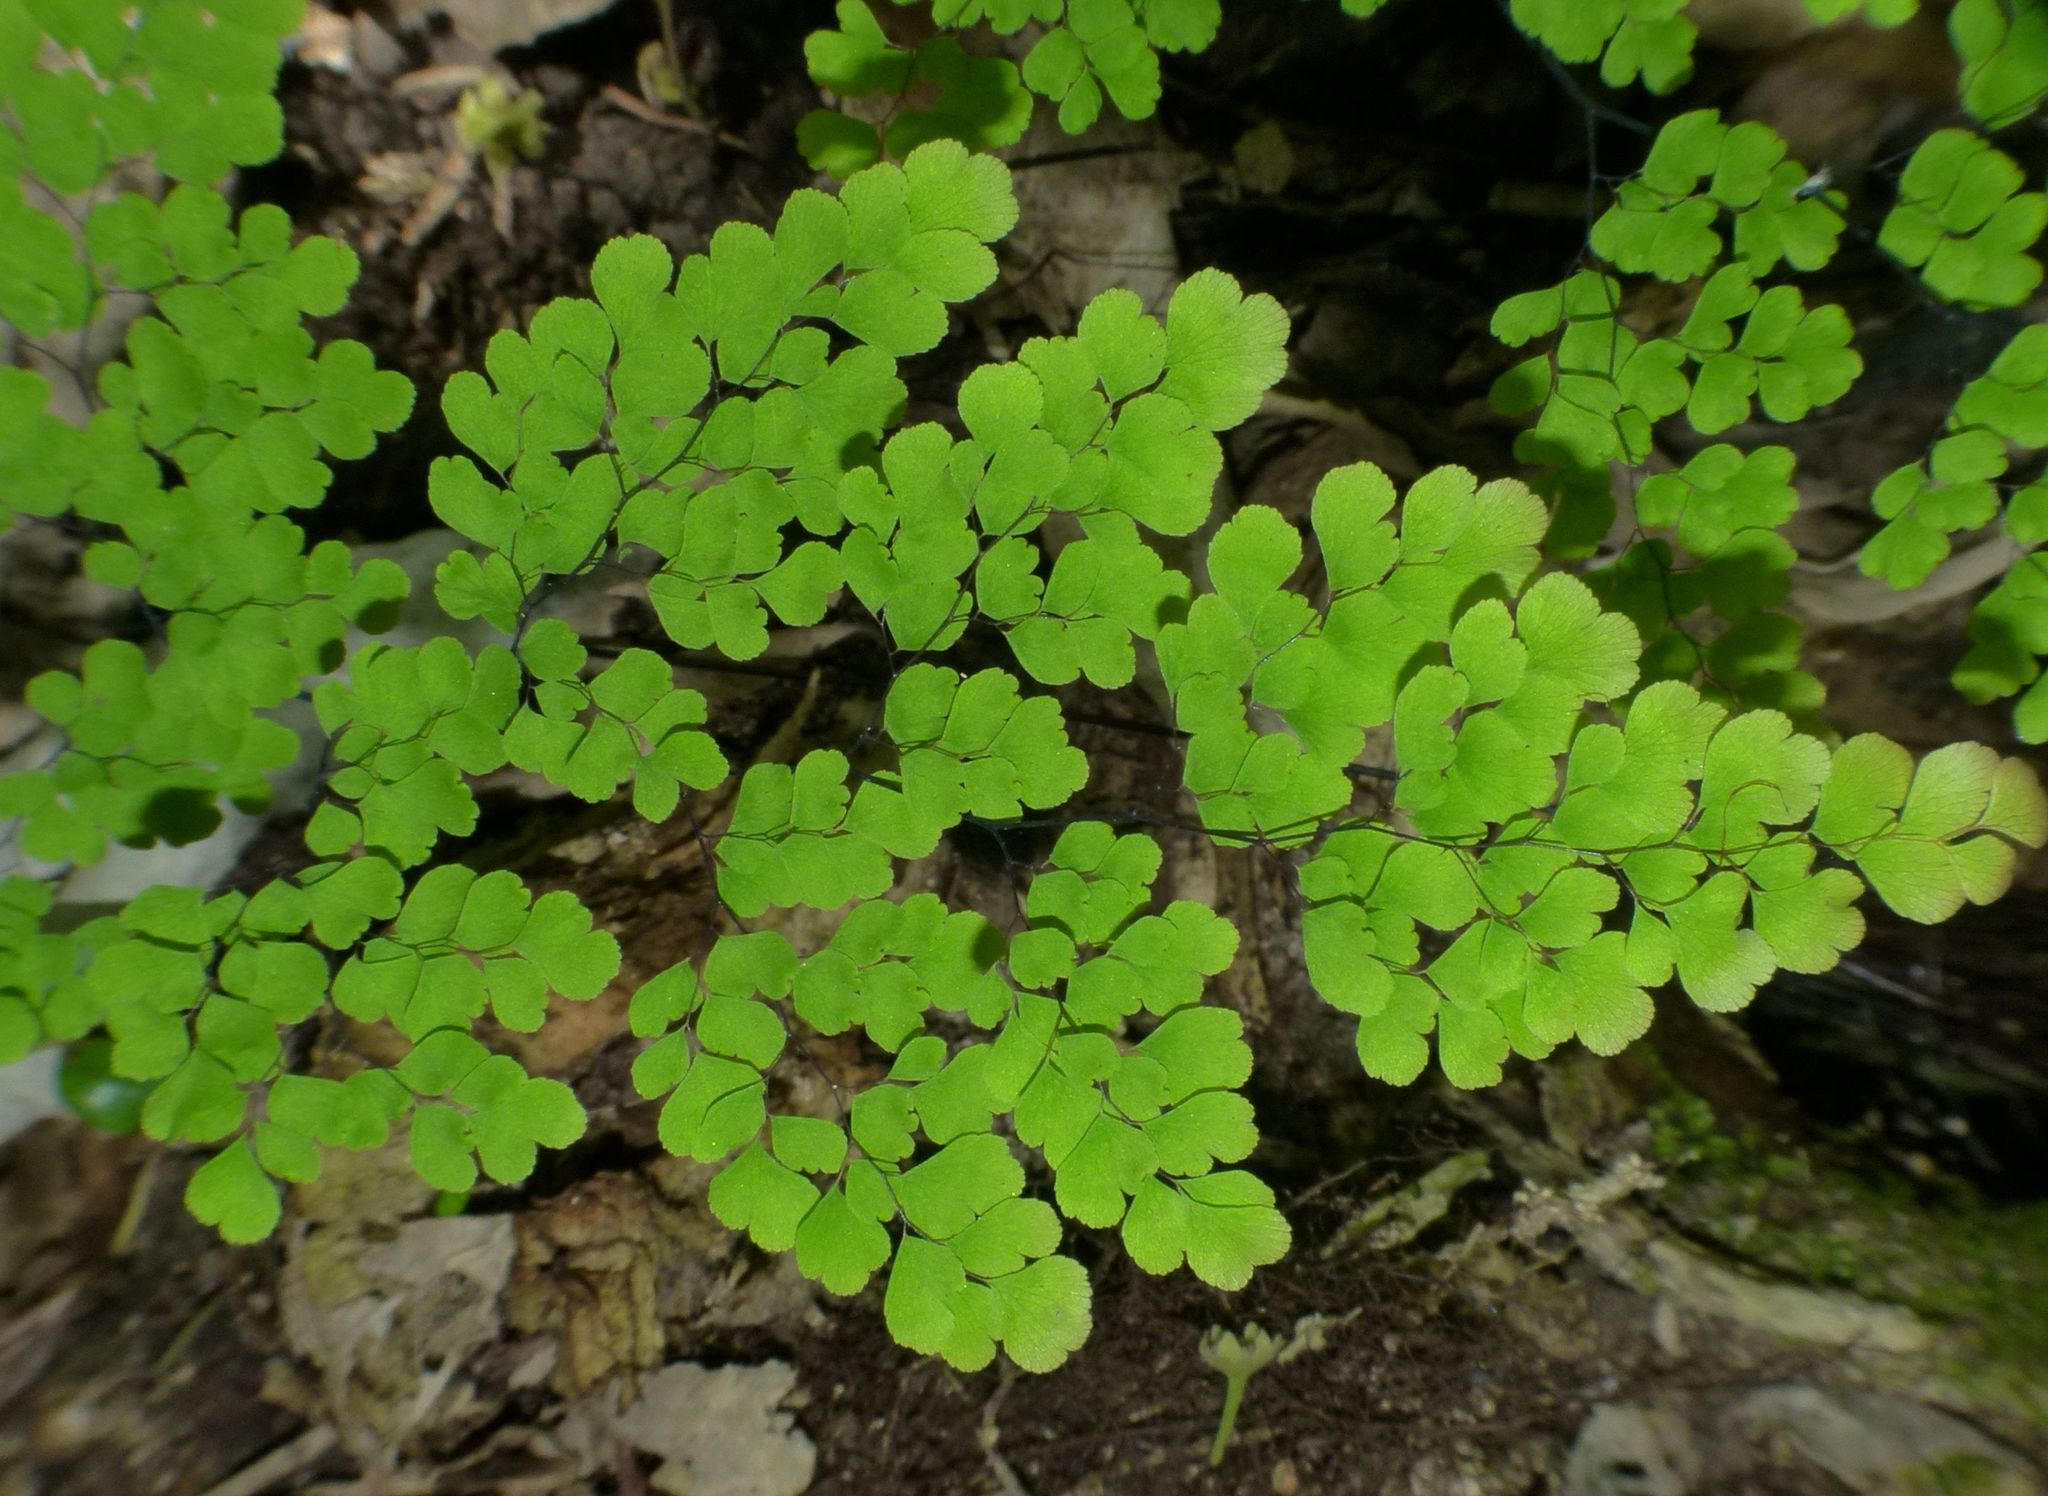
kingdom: Plantae
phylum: Tracheophyta
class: Polypodiopsida
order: Polypodiales
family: Pteridaceae
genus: Adiantum
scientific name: Adiantum raddianum
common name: Delta maidenhair fern
